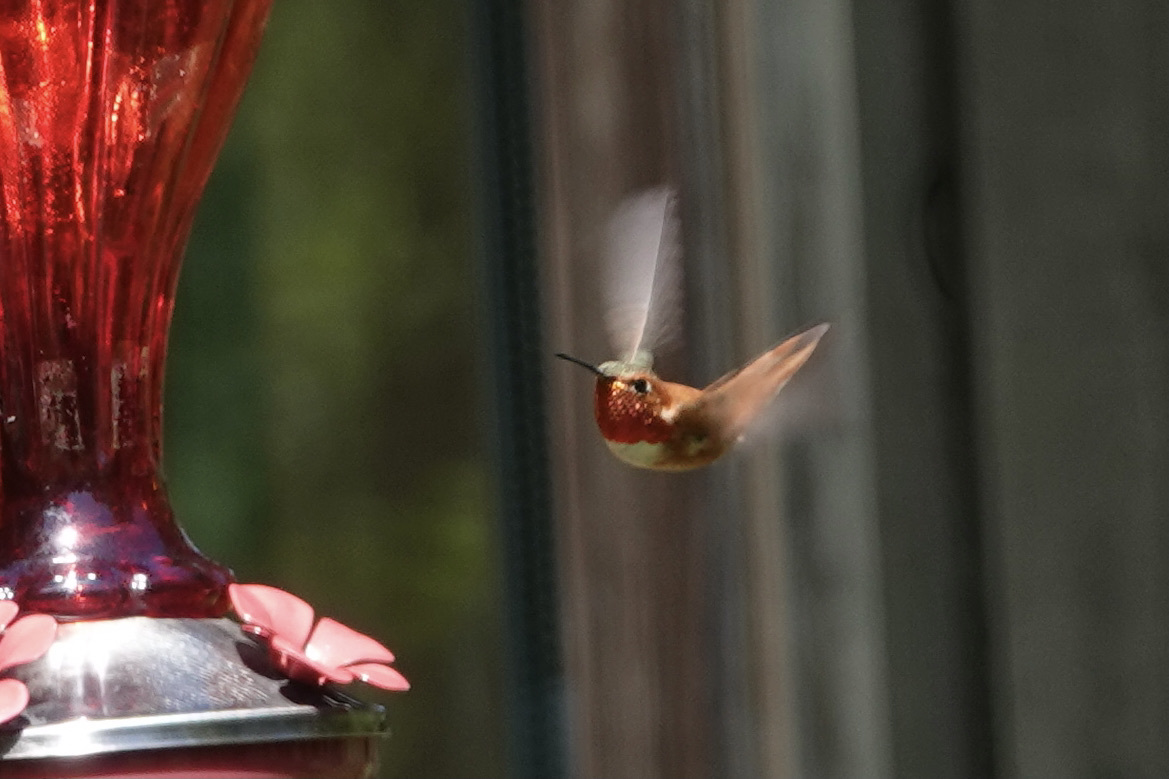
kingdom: Animalia
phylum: Chordata
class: Aves
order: Apodiformes
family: Trochilidae
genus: Selasphorus
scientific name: Selasphorus rufus
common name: Rufous hummingbird
